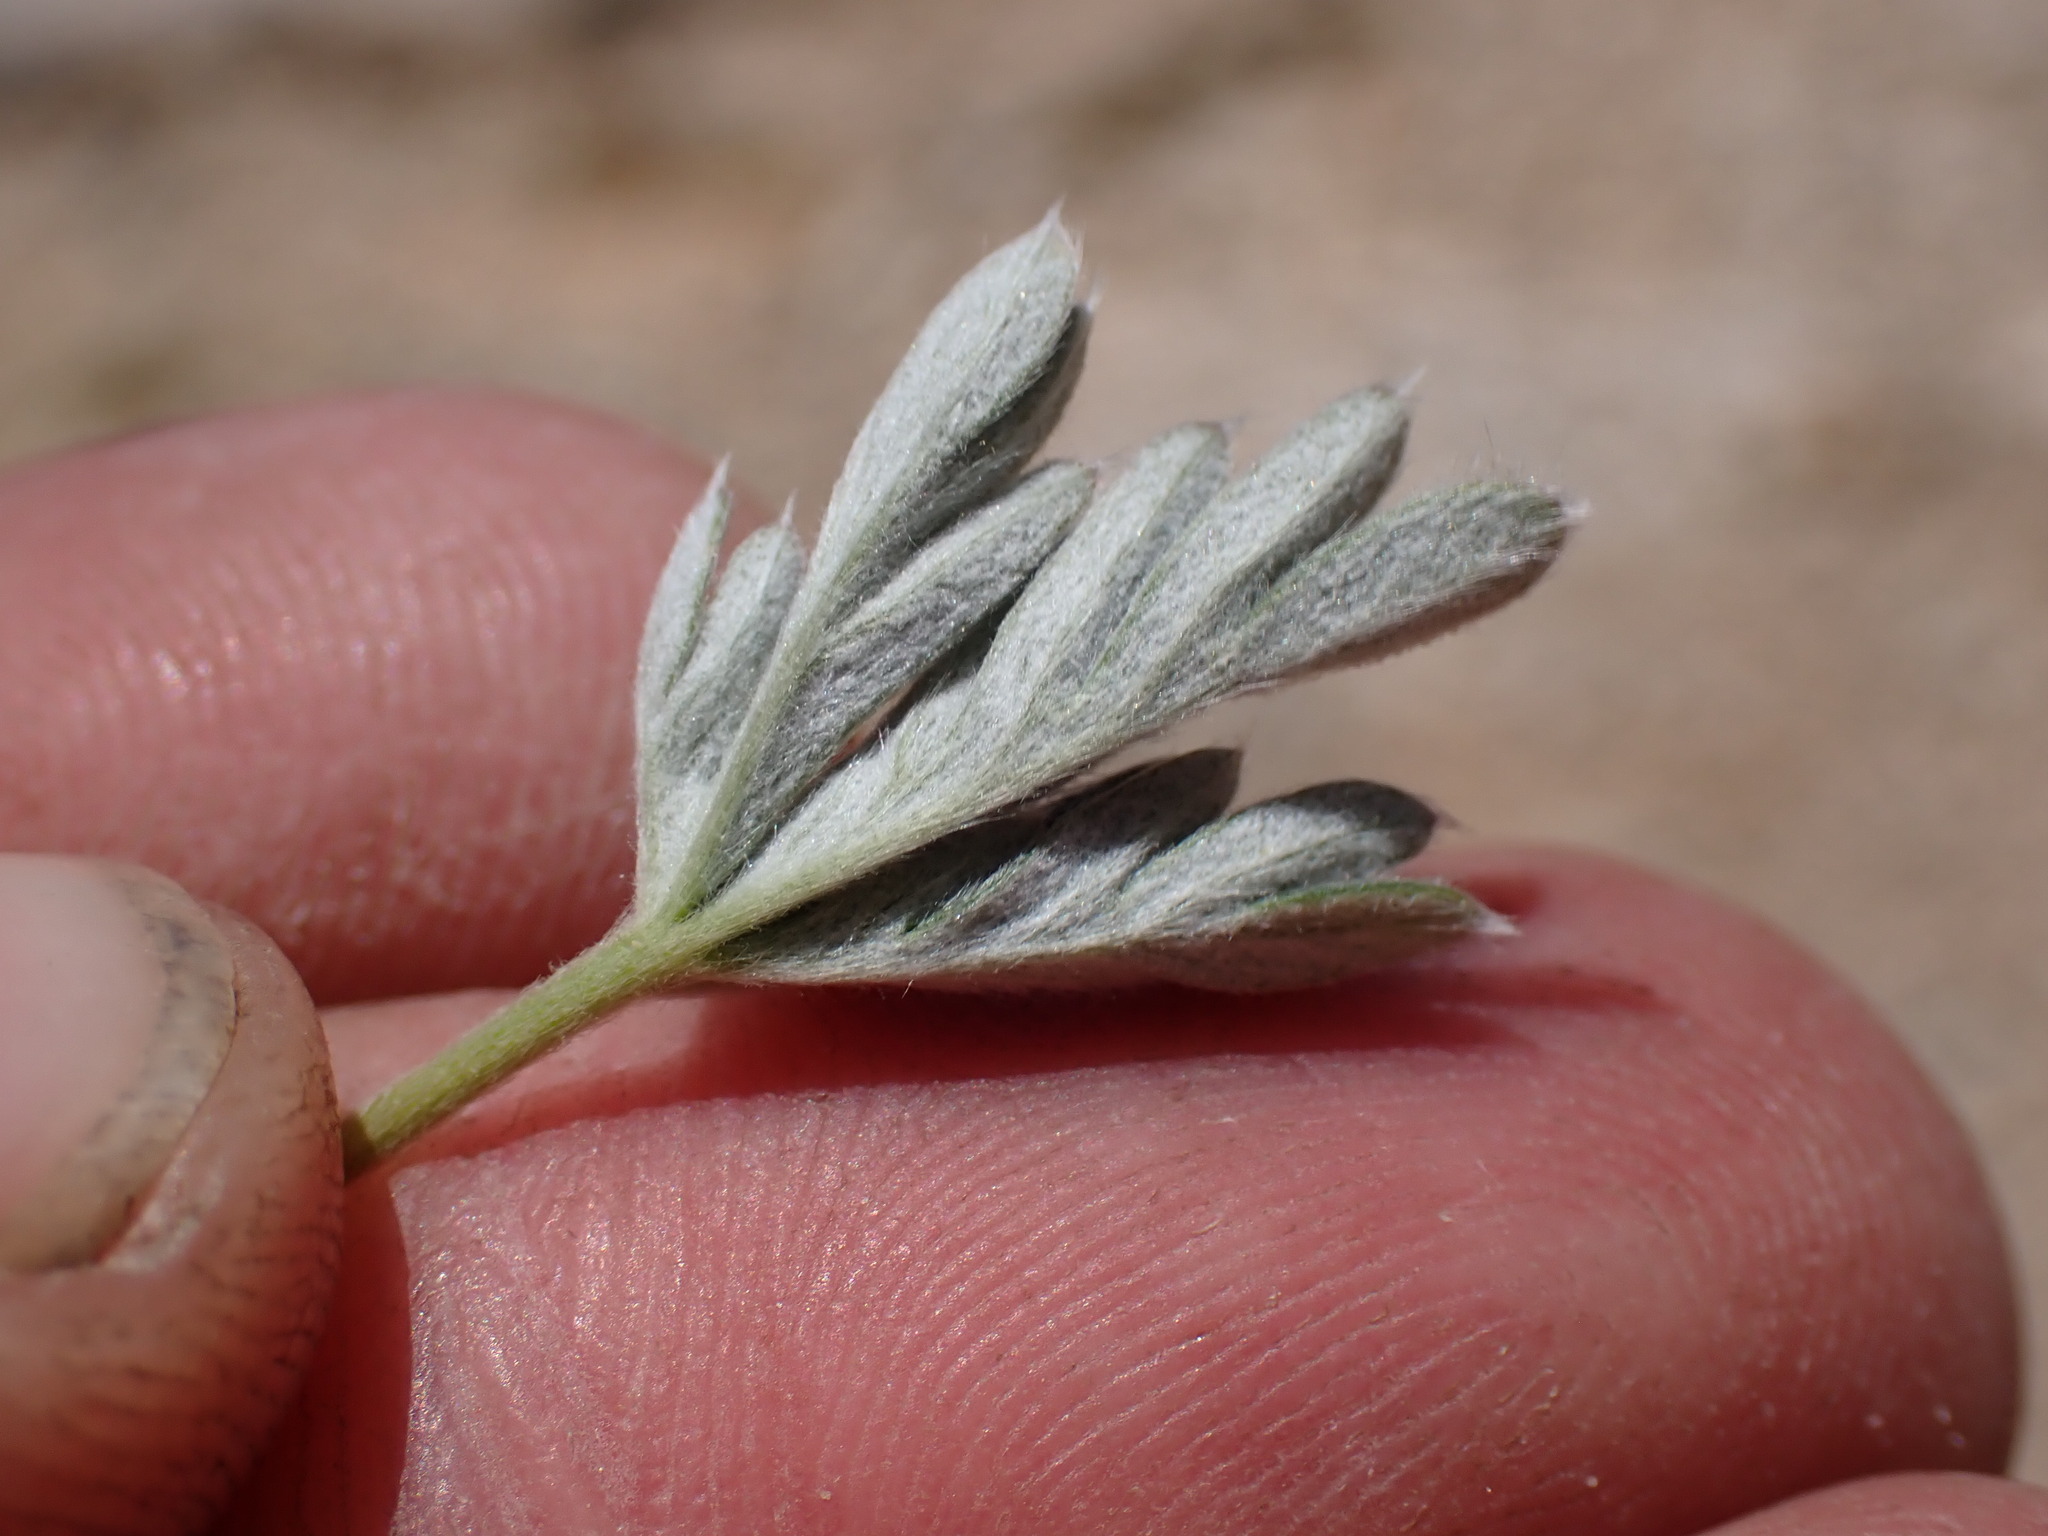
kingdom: Plantae
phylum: Tracheophyta
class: Magnoliopsida
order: Rosales
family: Rosaceae
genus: Potentilla
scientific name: Potentilla pseudosericea
